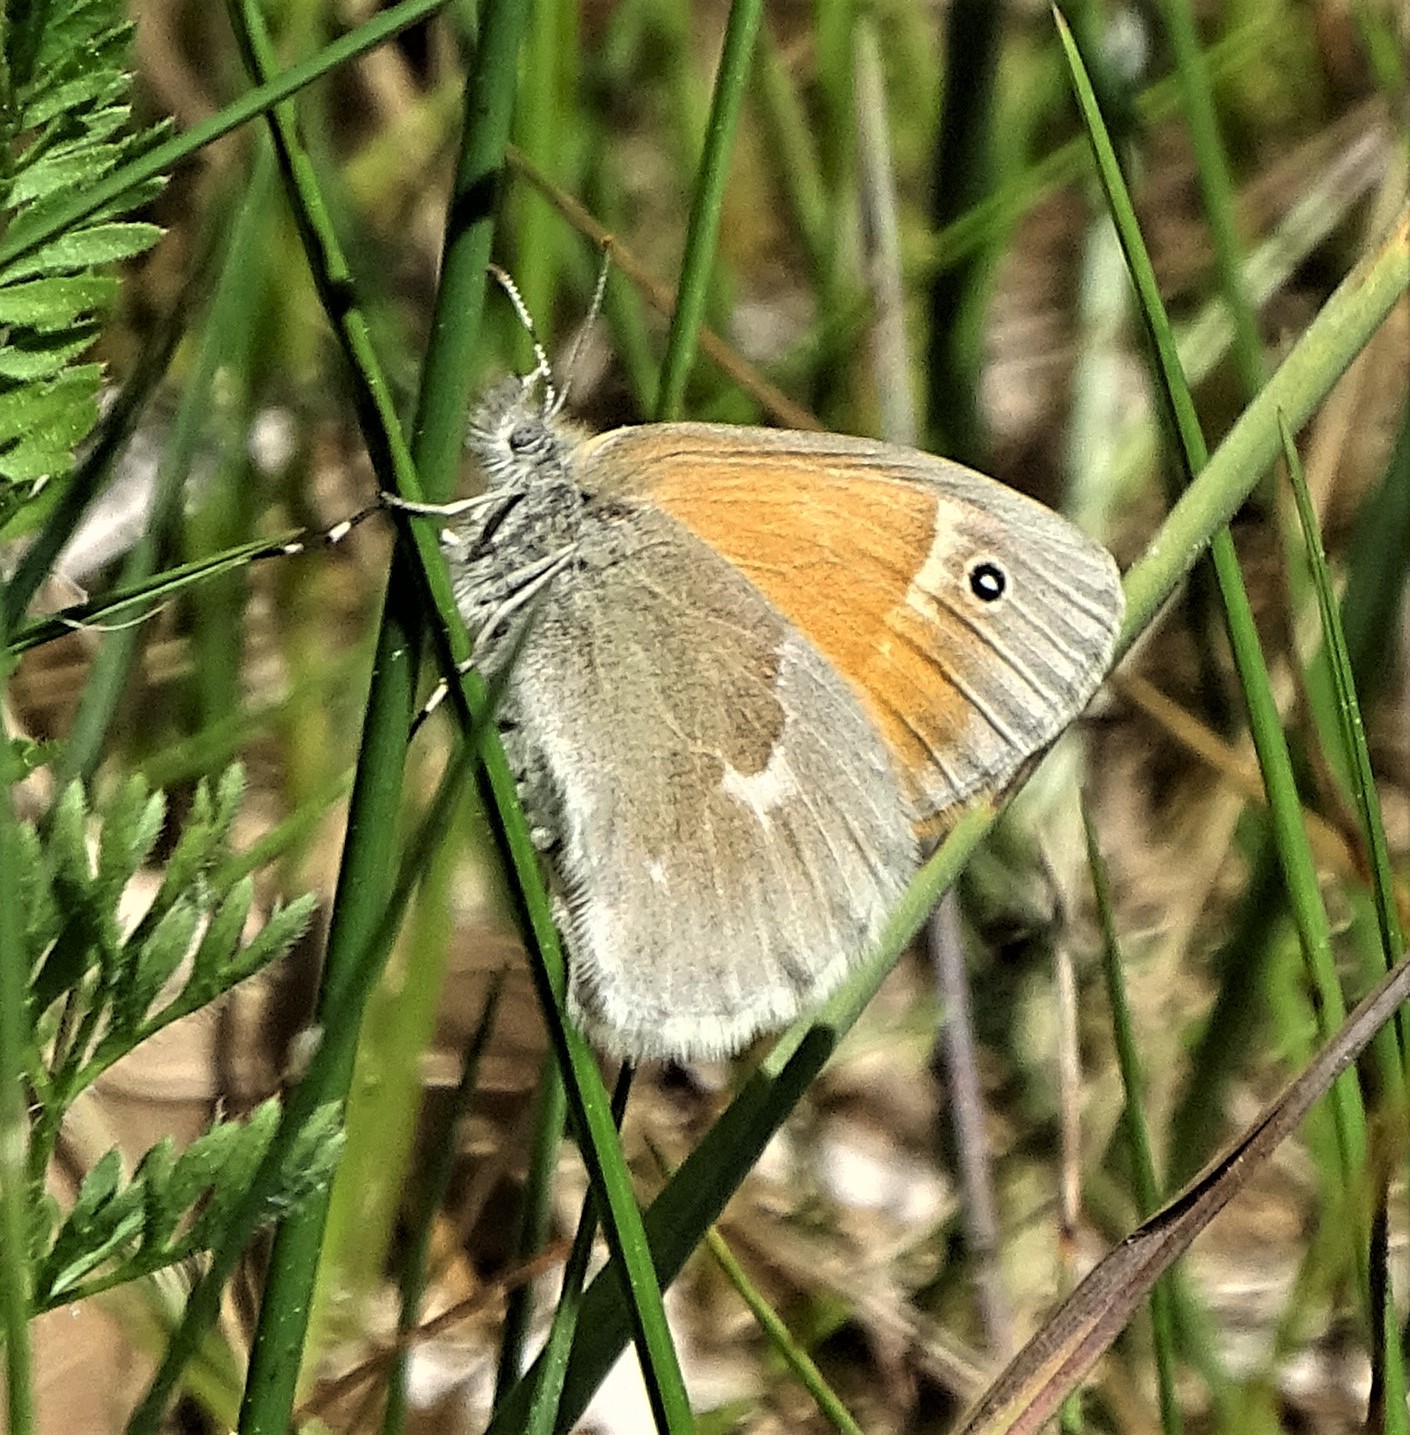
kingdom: Animalia
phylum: Arthropoda
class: Insecta
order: Lepidoptera
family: Nymphalidae
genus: Coenonympha
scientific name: Coenonympha california
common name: Common ringlet
